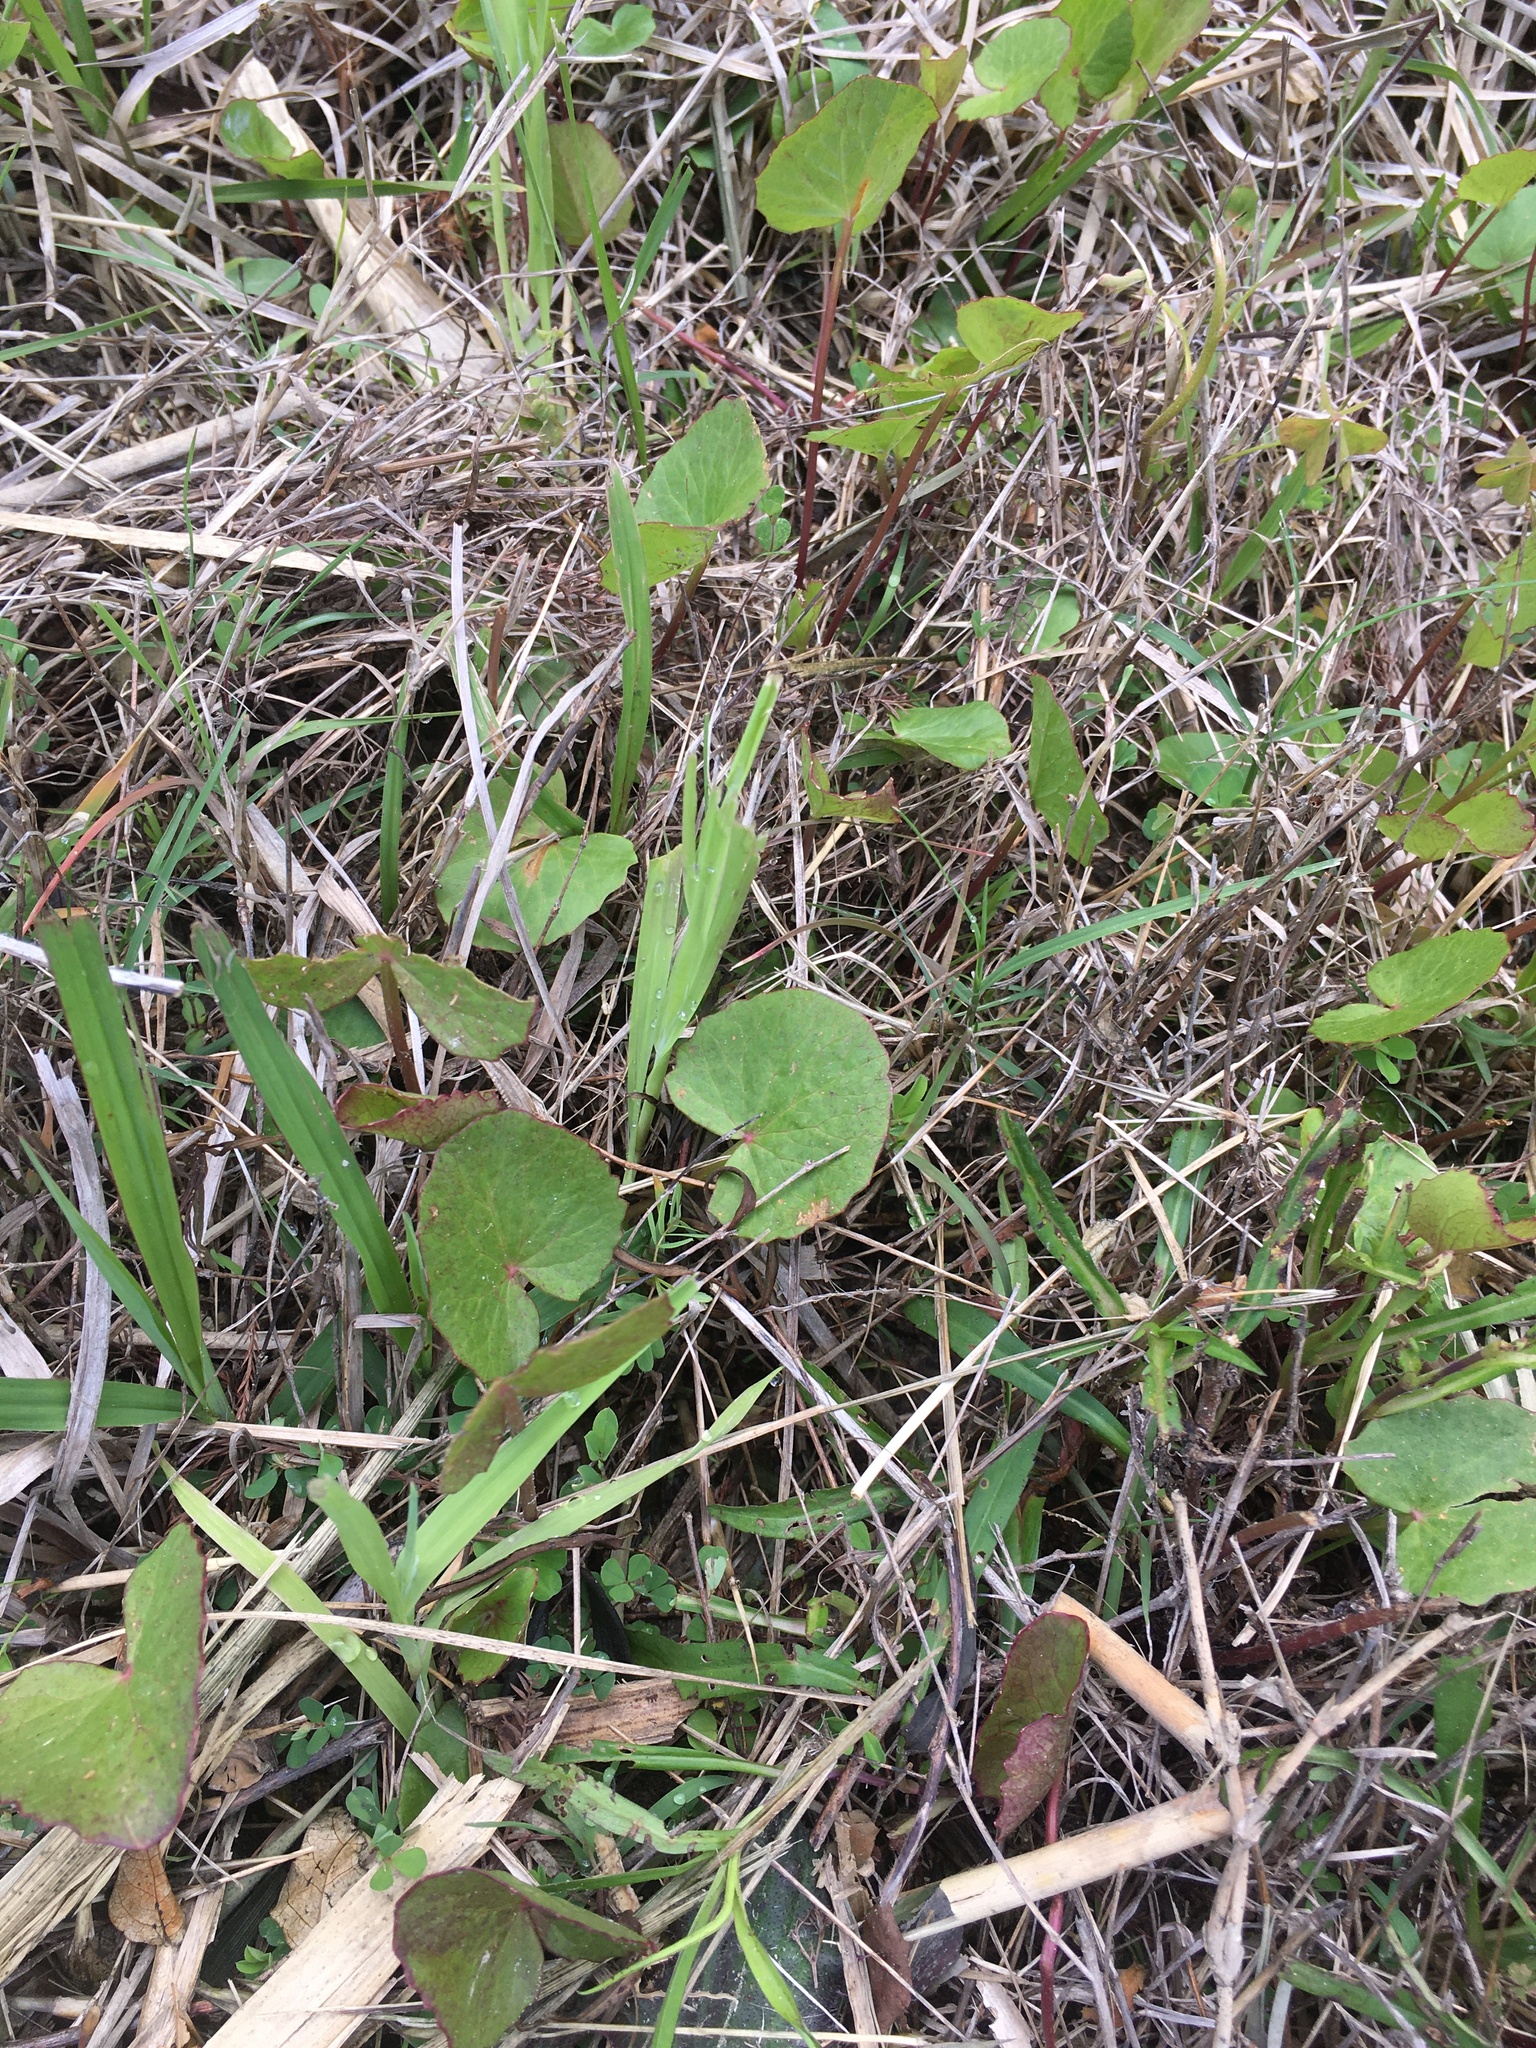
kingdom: Plantae
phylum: Tracheophyta
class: Magnoliopsida
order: Apiales
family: Apiaceae
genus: Centella
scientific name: Centella erecta
